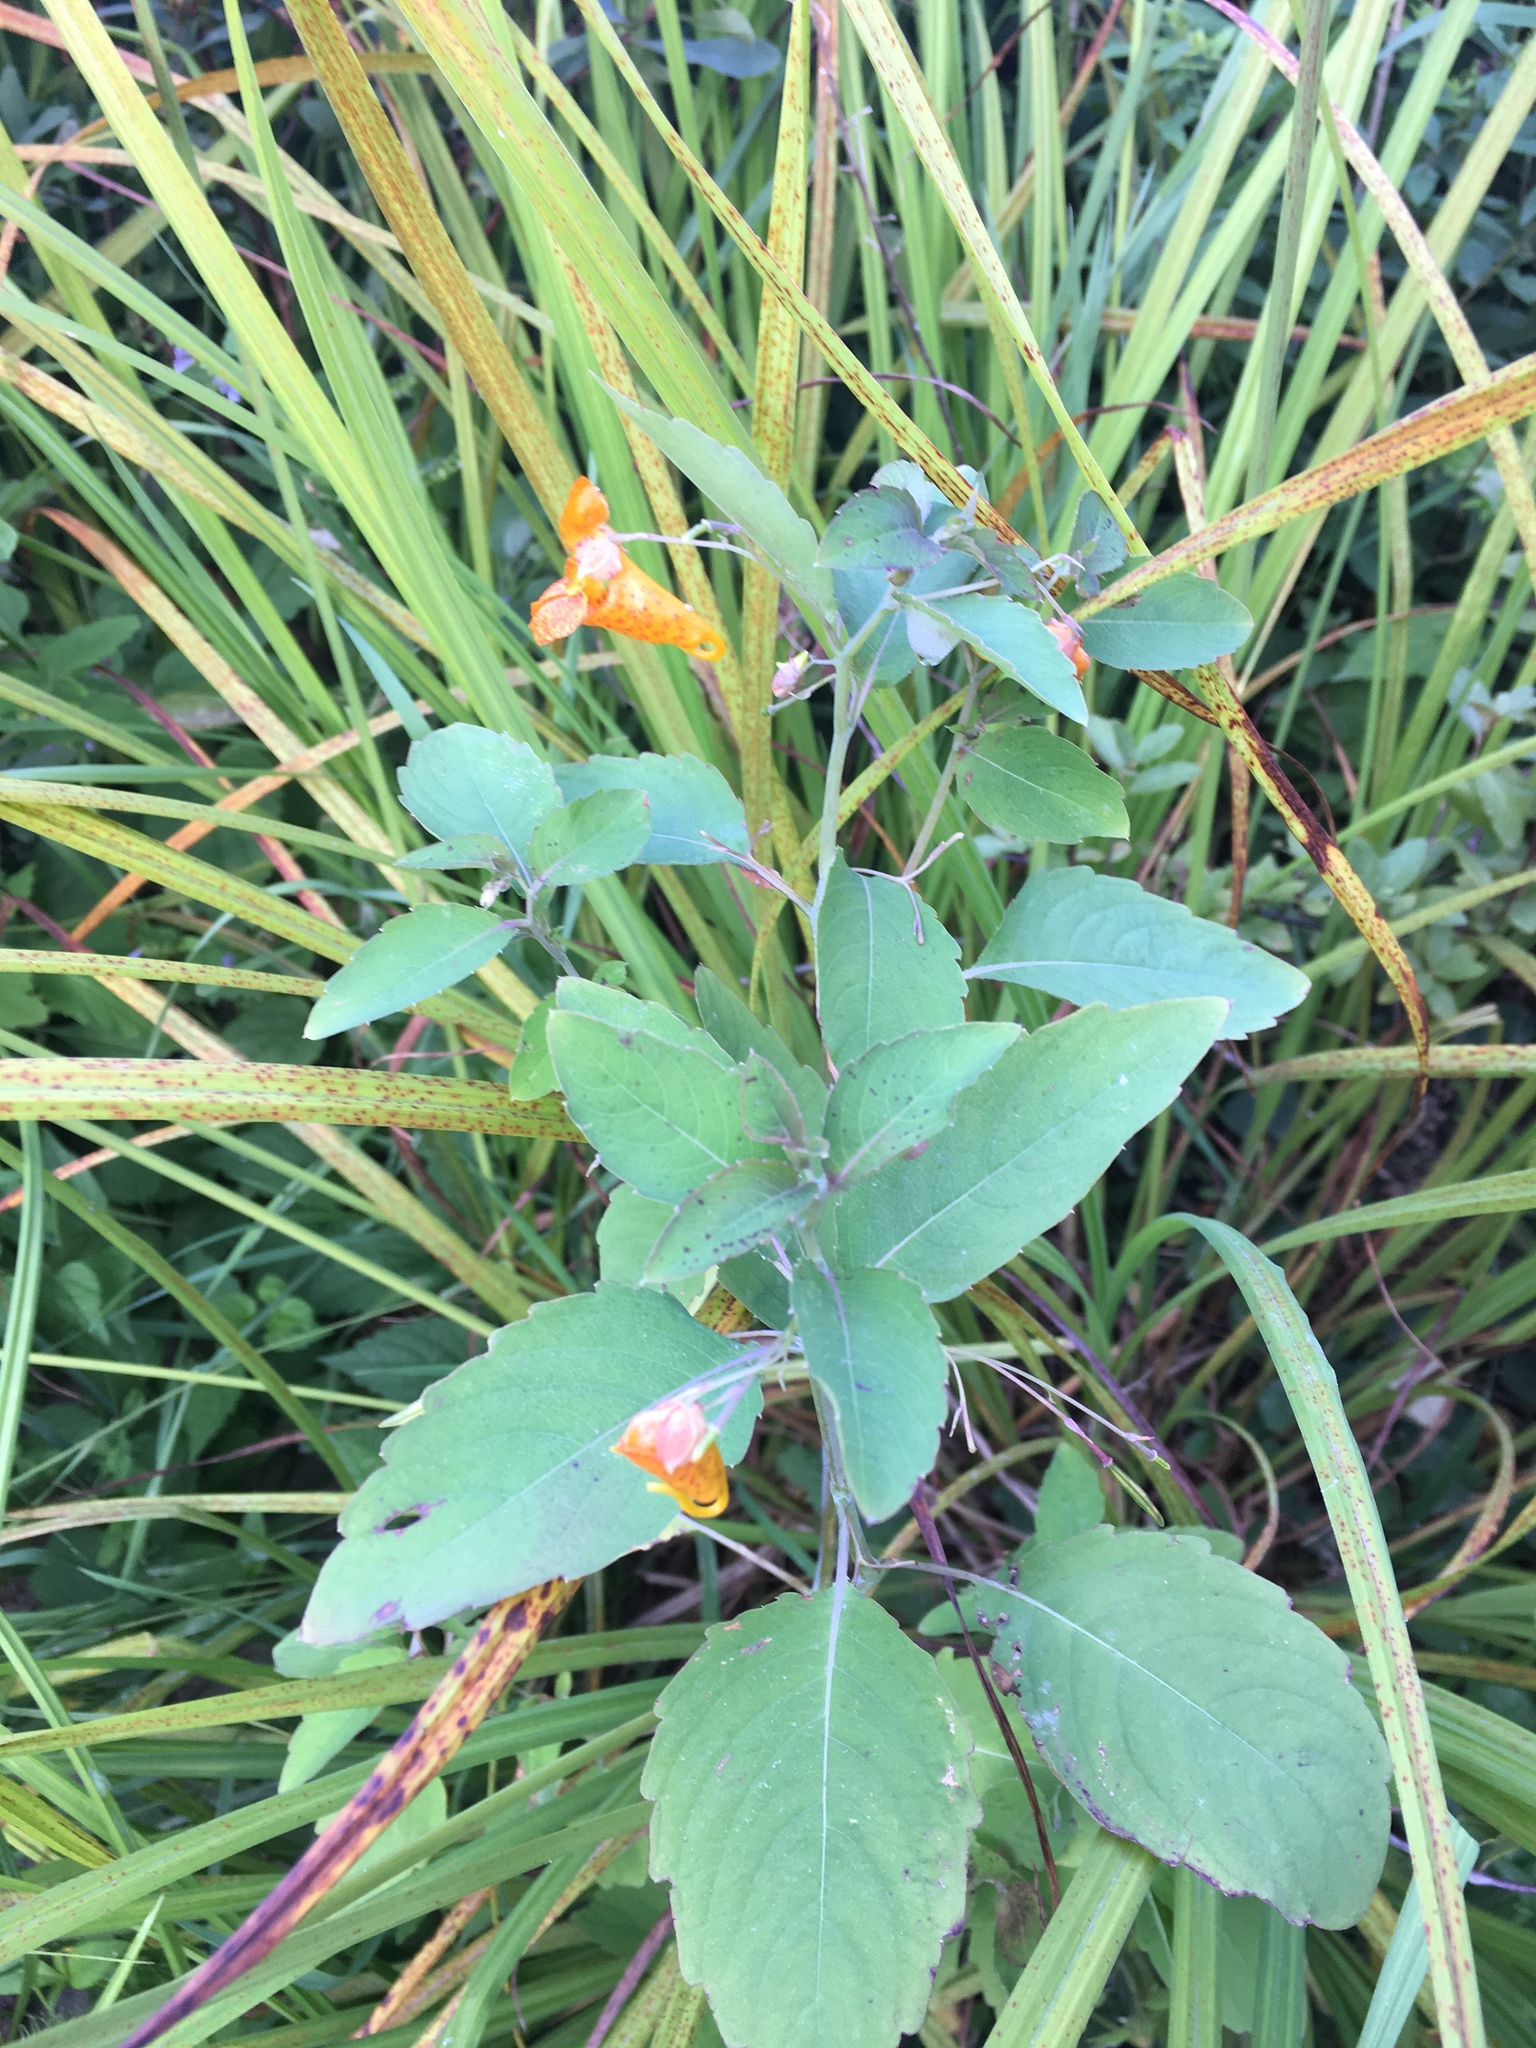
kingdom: Plantae
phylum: Tracheophyta
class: Magnoliopsida
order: Ericales
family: Balsaminaceae
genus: Impatiens
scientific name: Impatiens capensis
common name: Orange balsam
